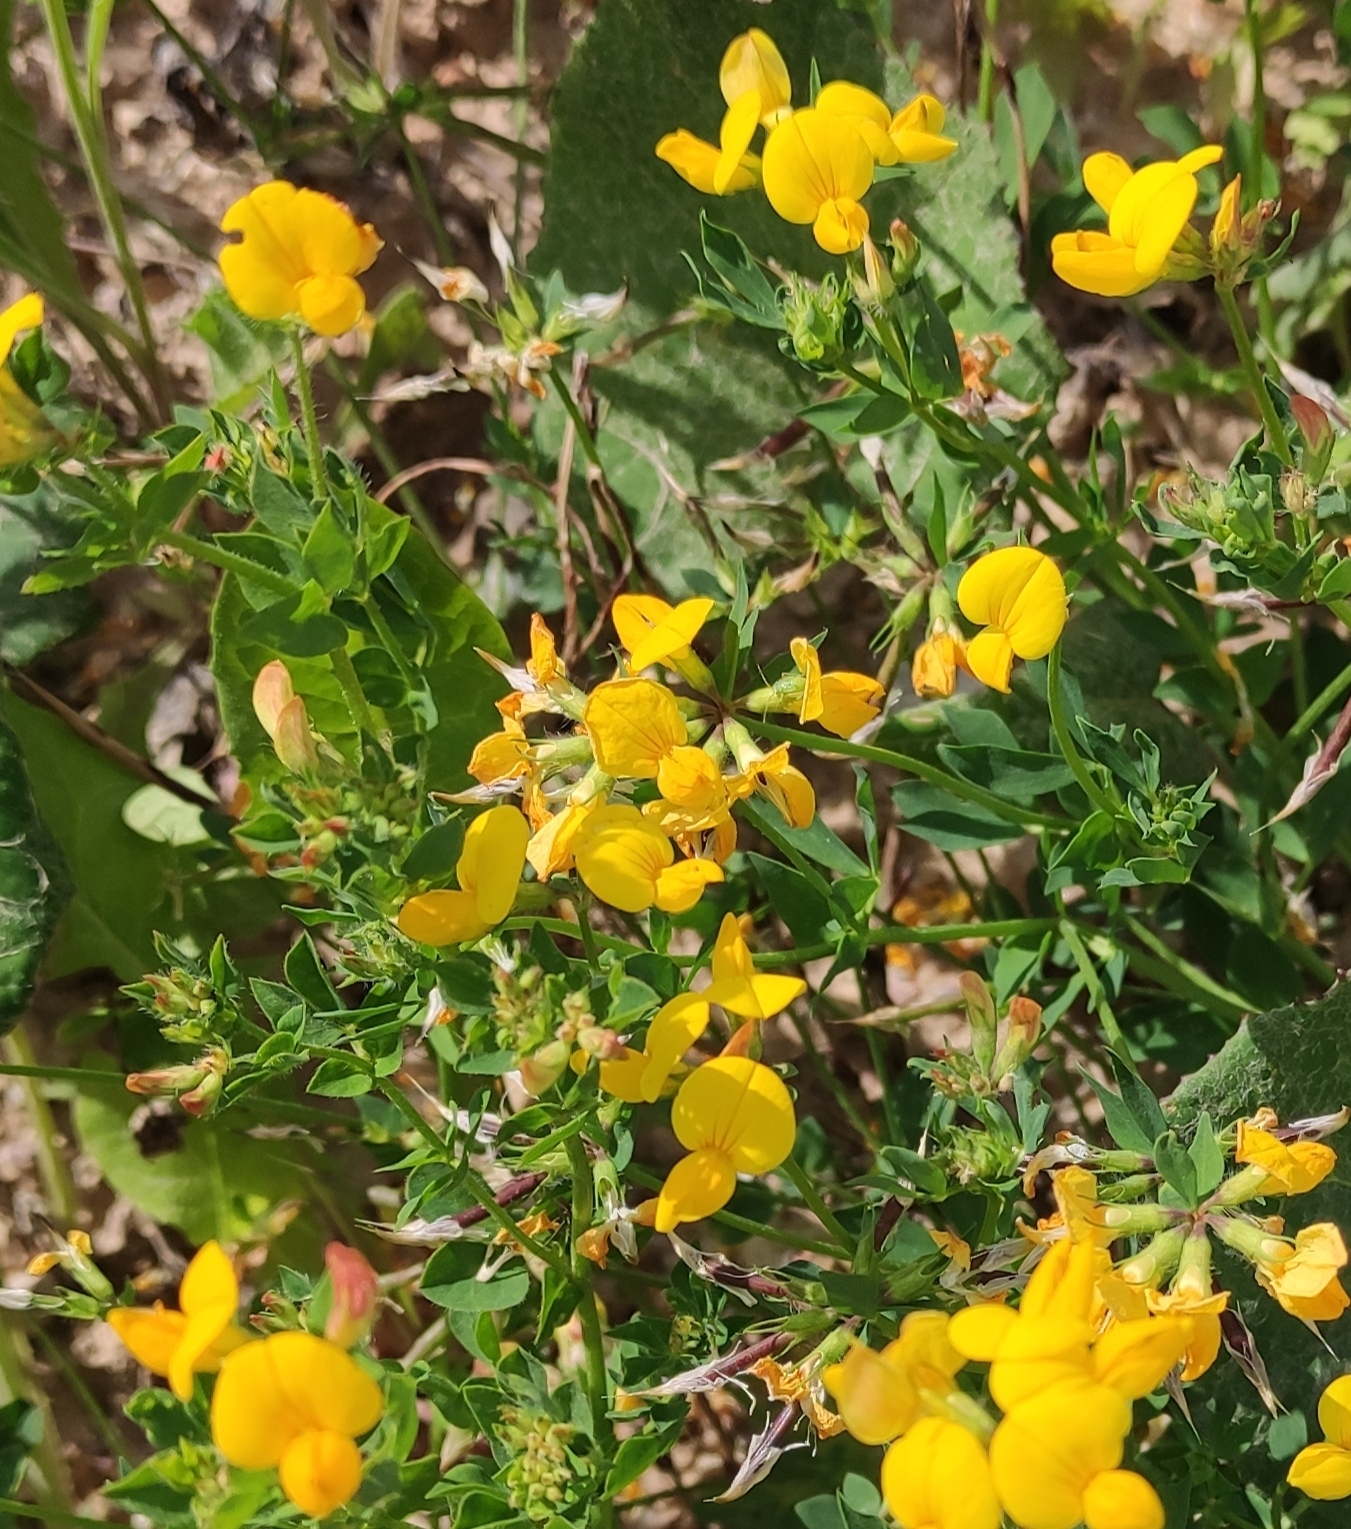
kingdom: Plantae
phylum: Tracheophyta
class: Magnoliopsida
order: Fabales
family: Fabaceae
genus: Lotus
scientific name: Lotus corniculatus
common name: Common bird's-foot-trefoil
